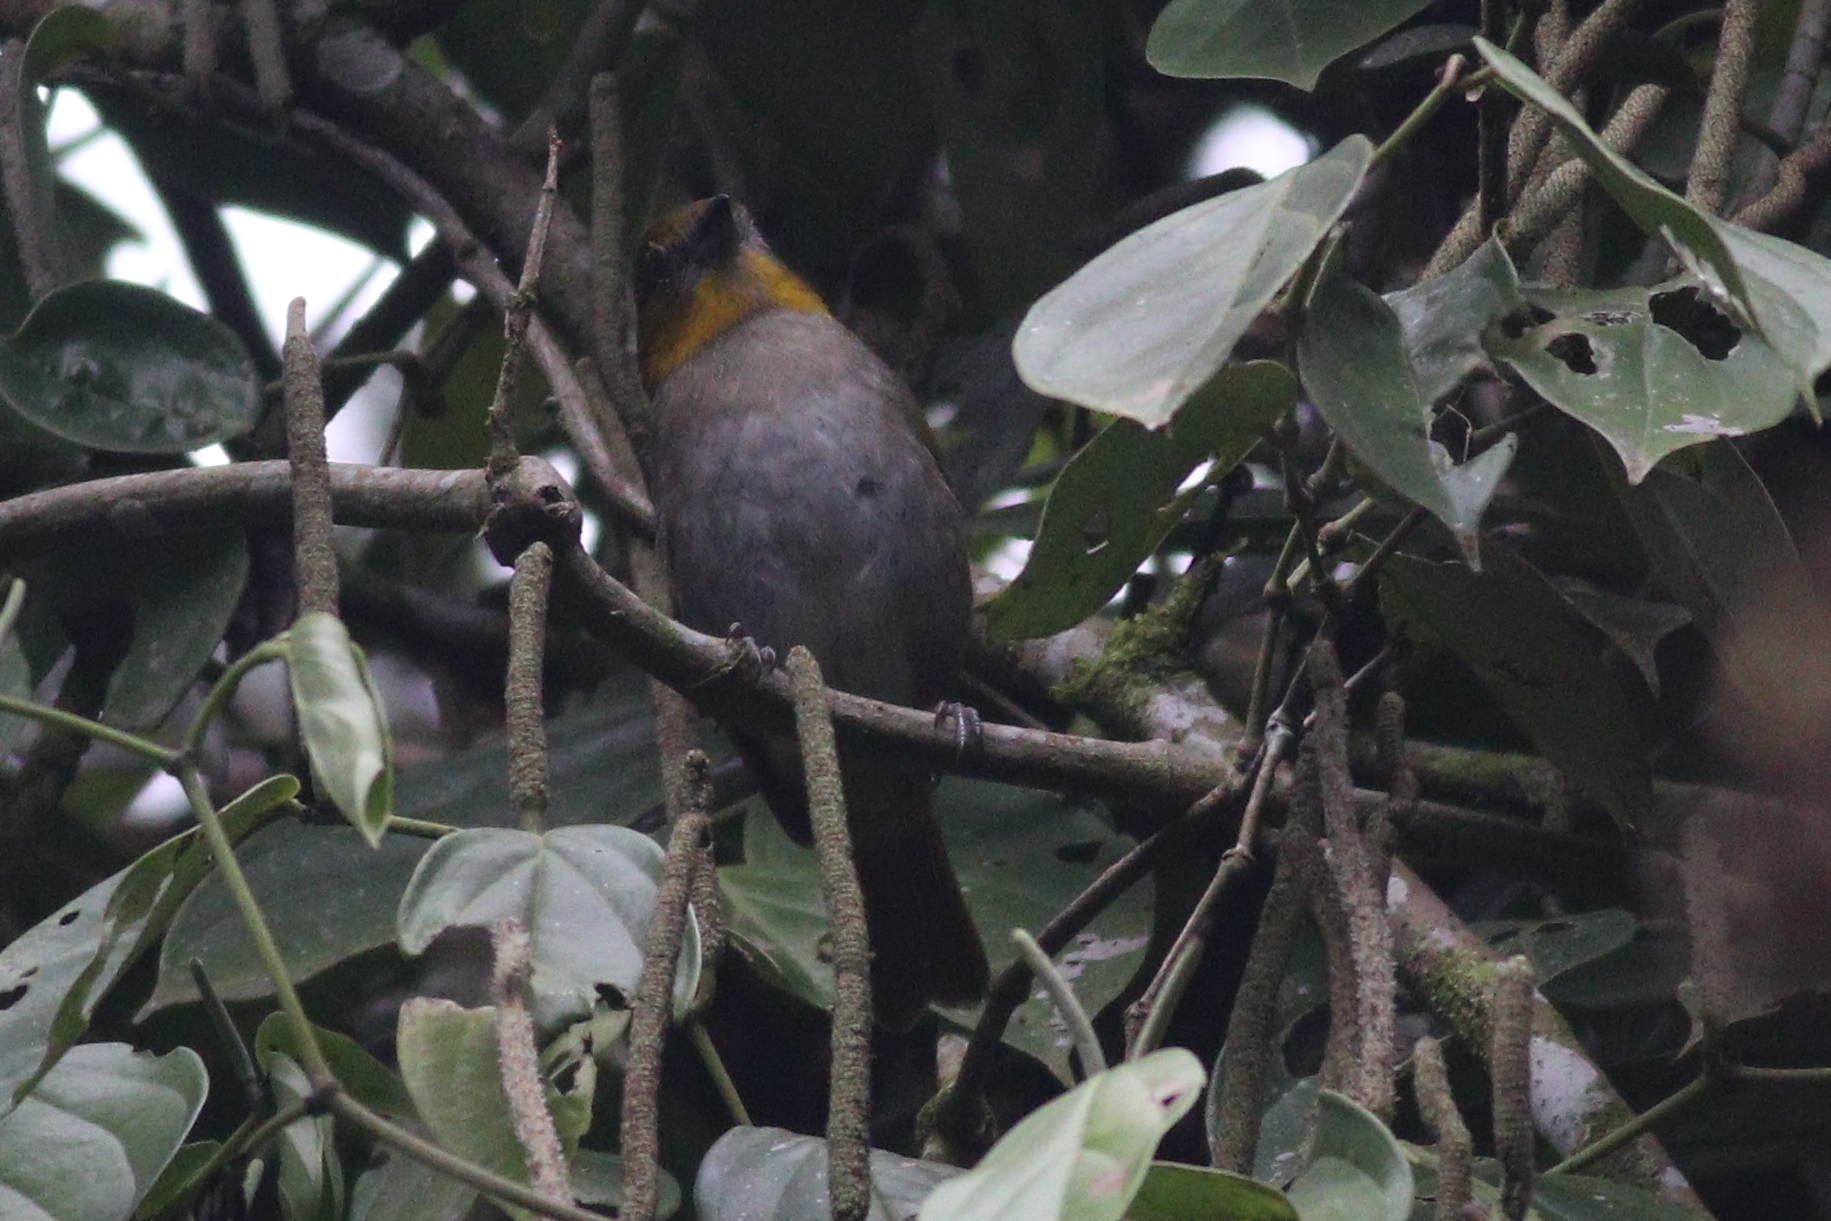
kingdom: Animalia
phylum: Chordata
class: Aves
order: Passeriformes
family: Passerellidae
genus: Chlorospingus
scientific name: Chlorospingus flavigularis
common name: Yellow-throated bush-tanager
